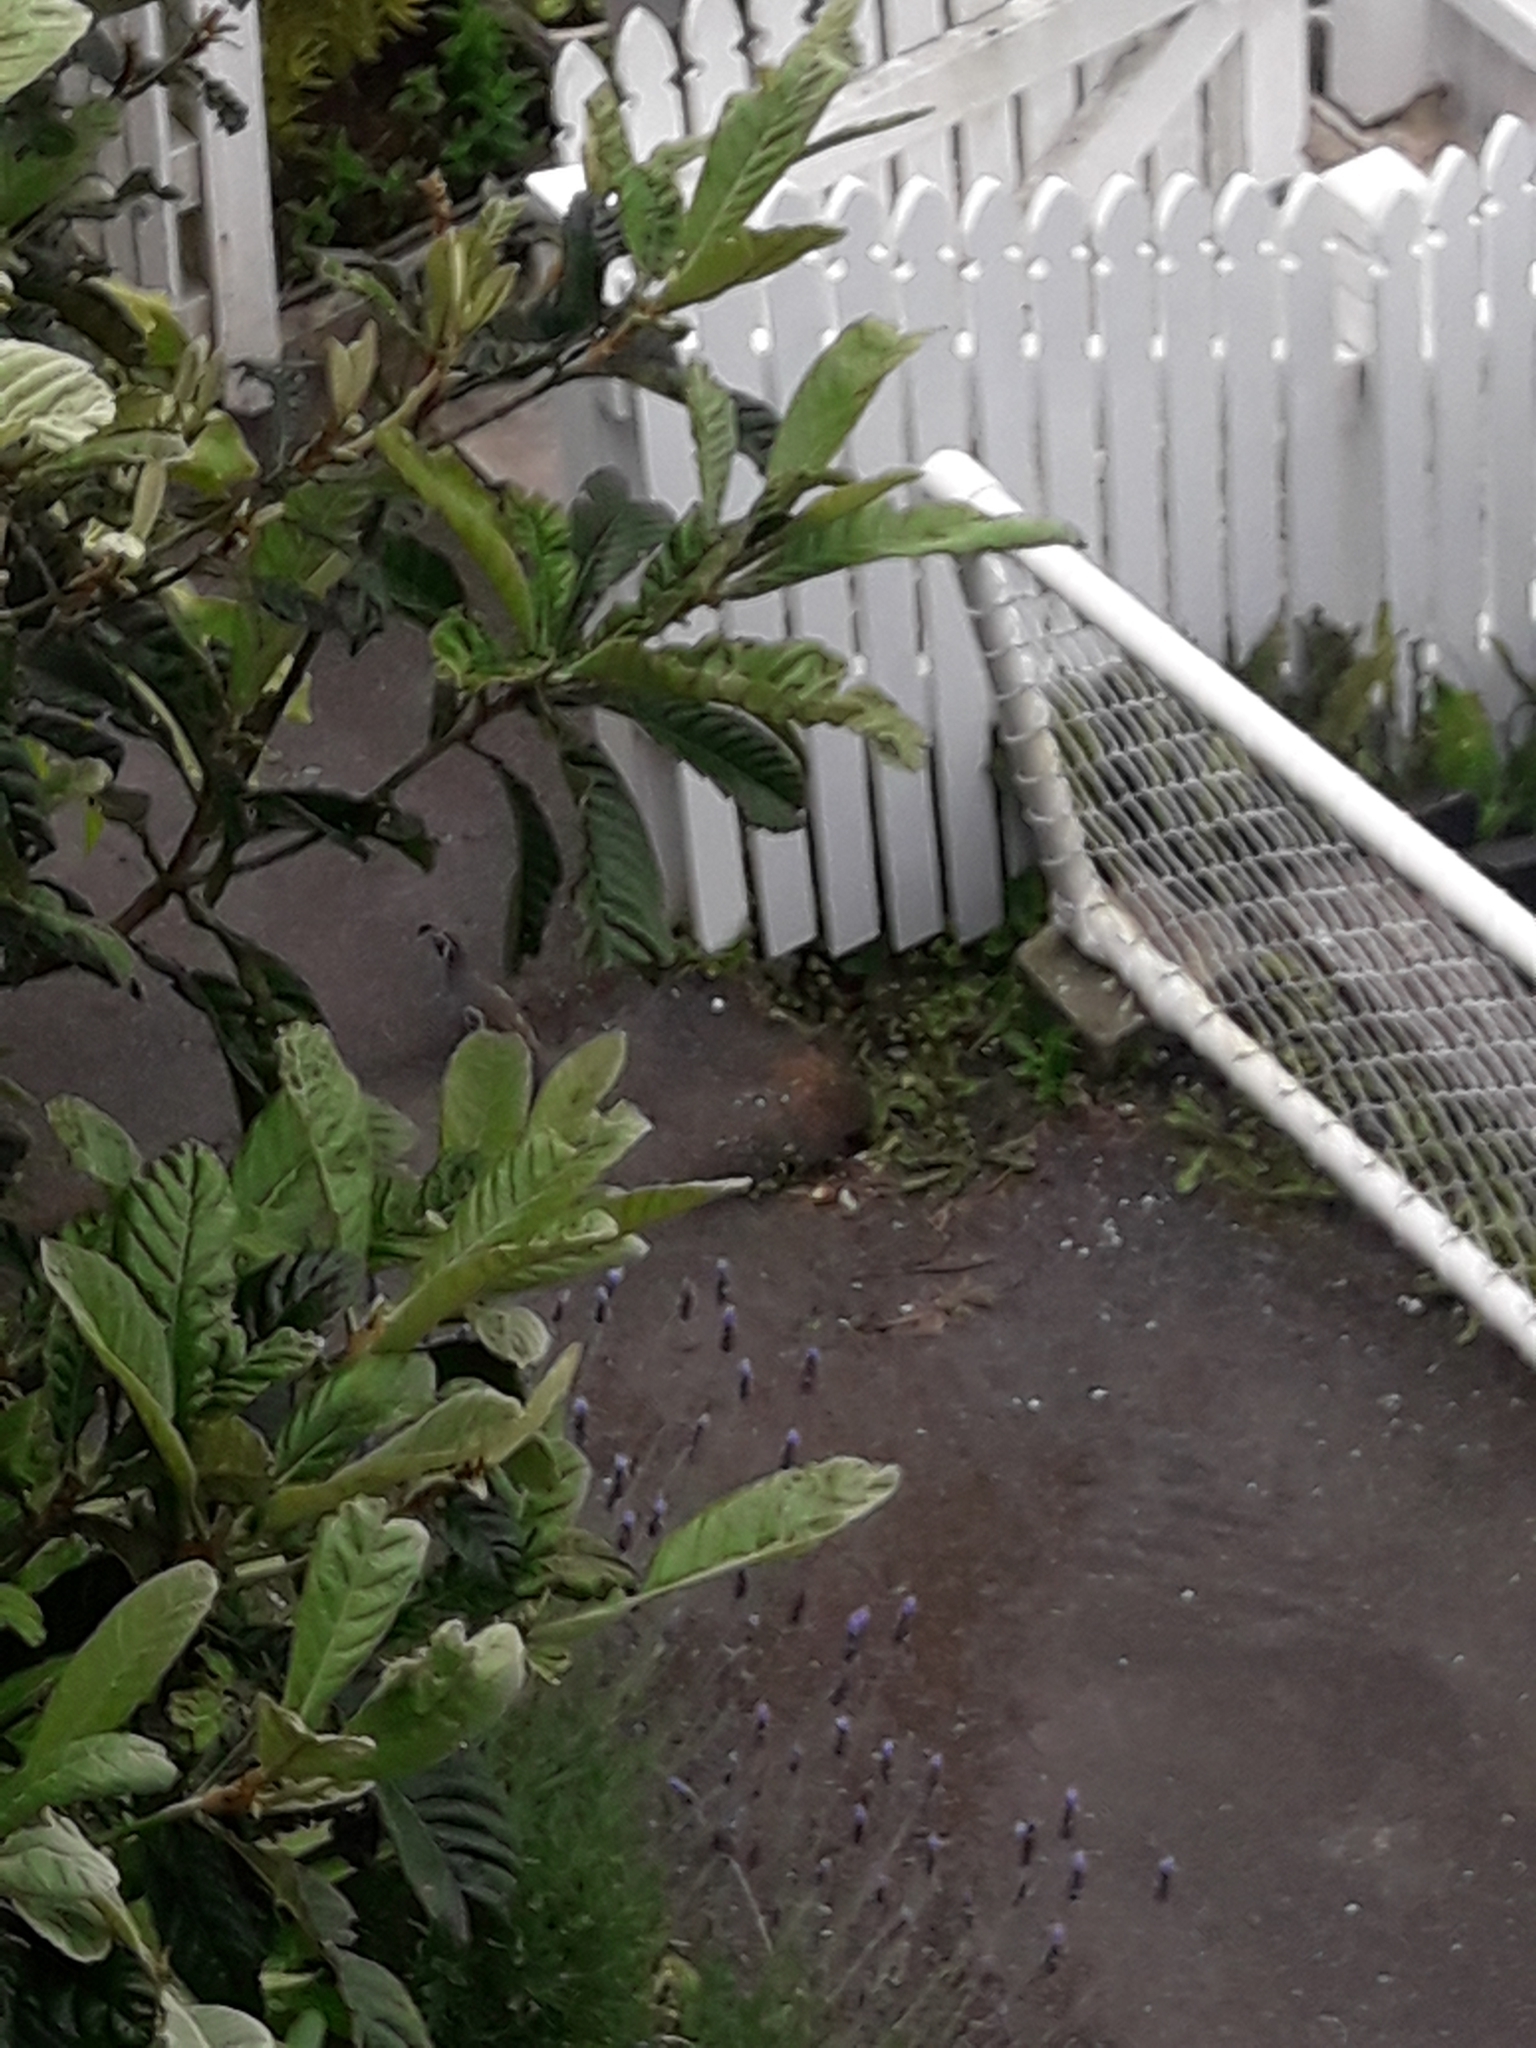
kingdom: Animalia
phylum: Chordata
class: Aves
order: Galliformes
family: Odontophoridae
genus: Callipepla
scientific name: Callipepla californica
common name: California quail
